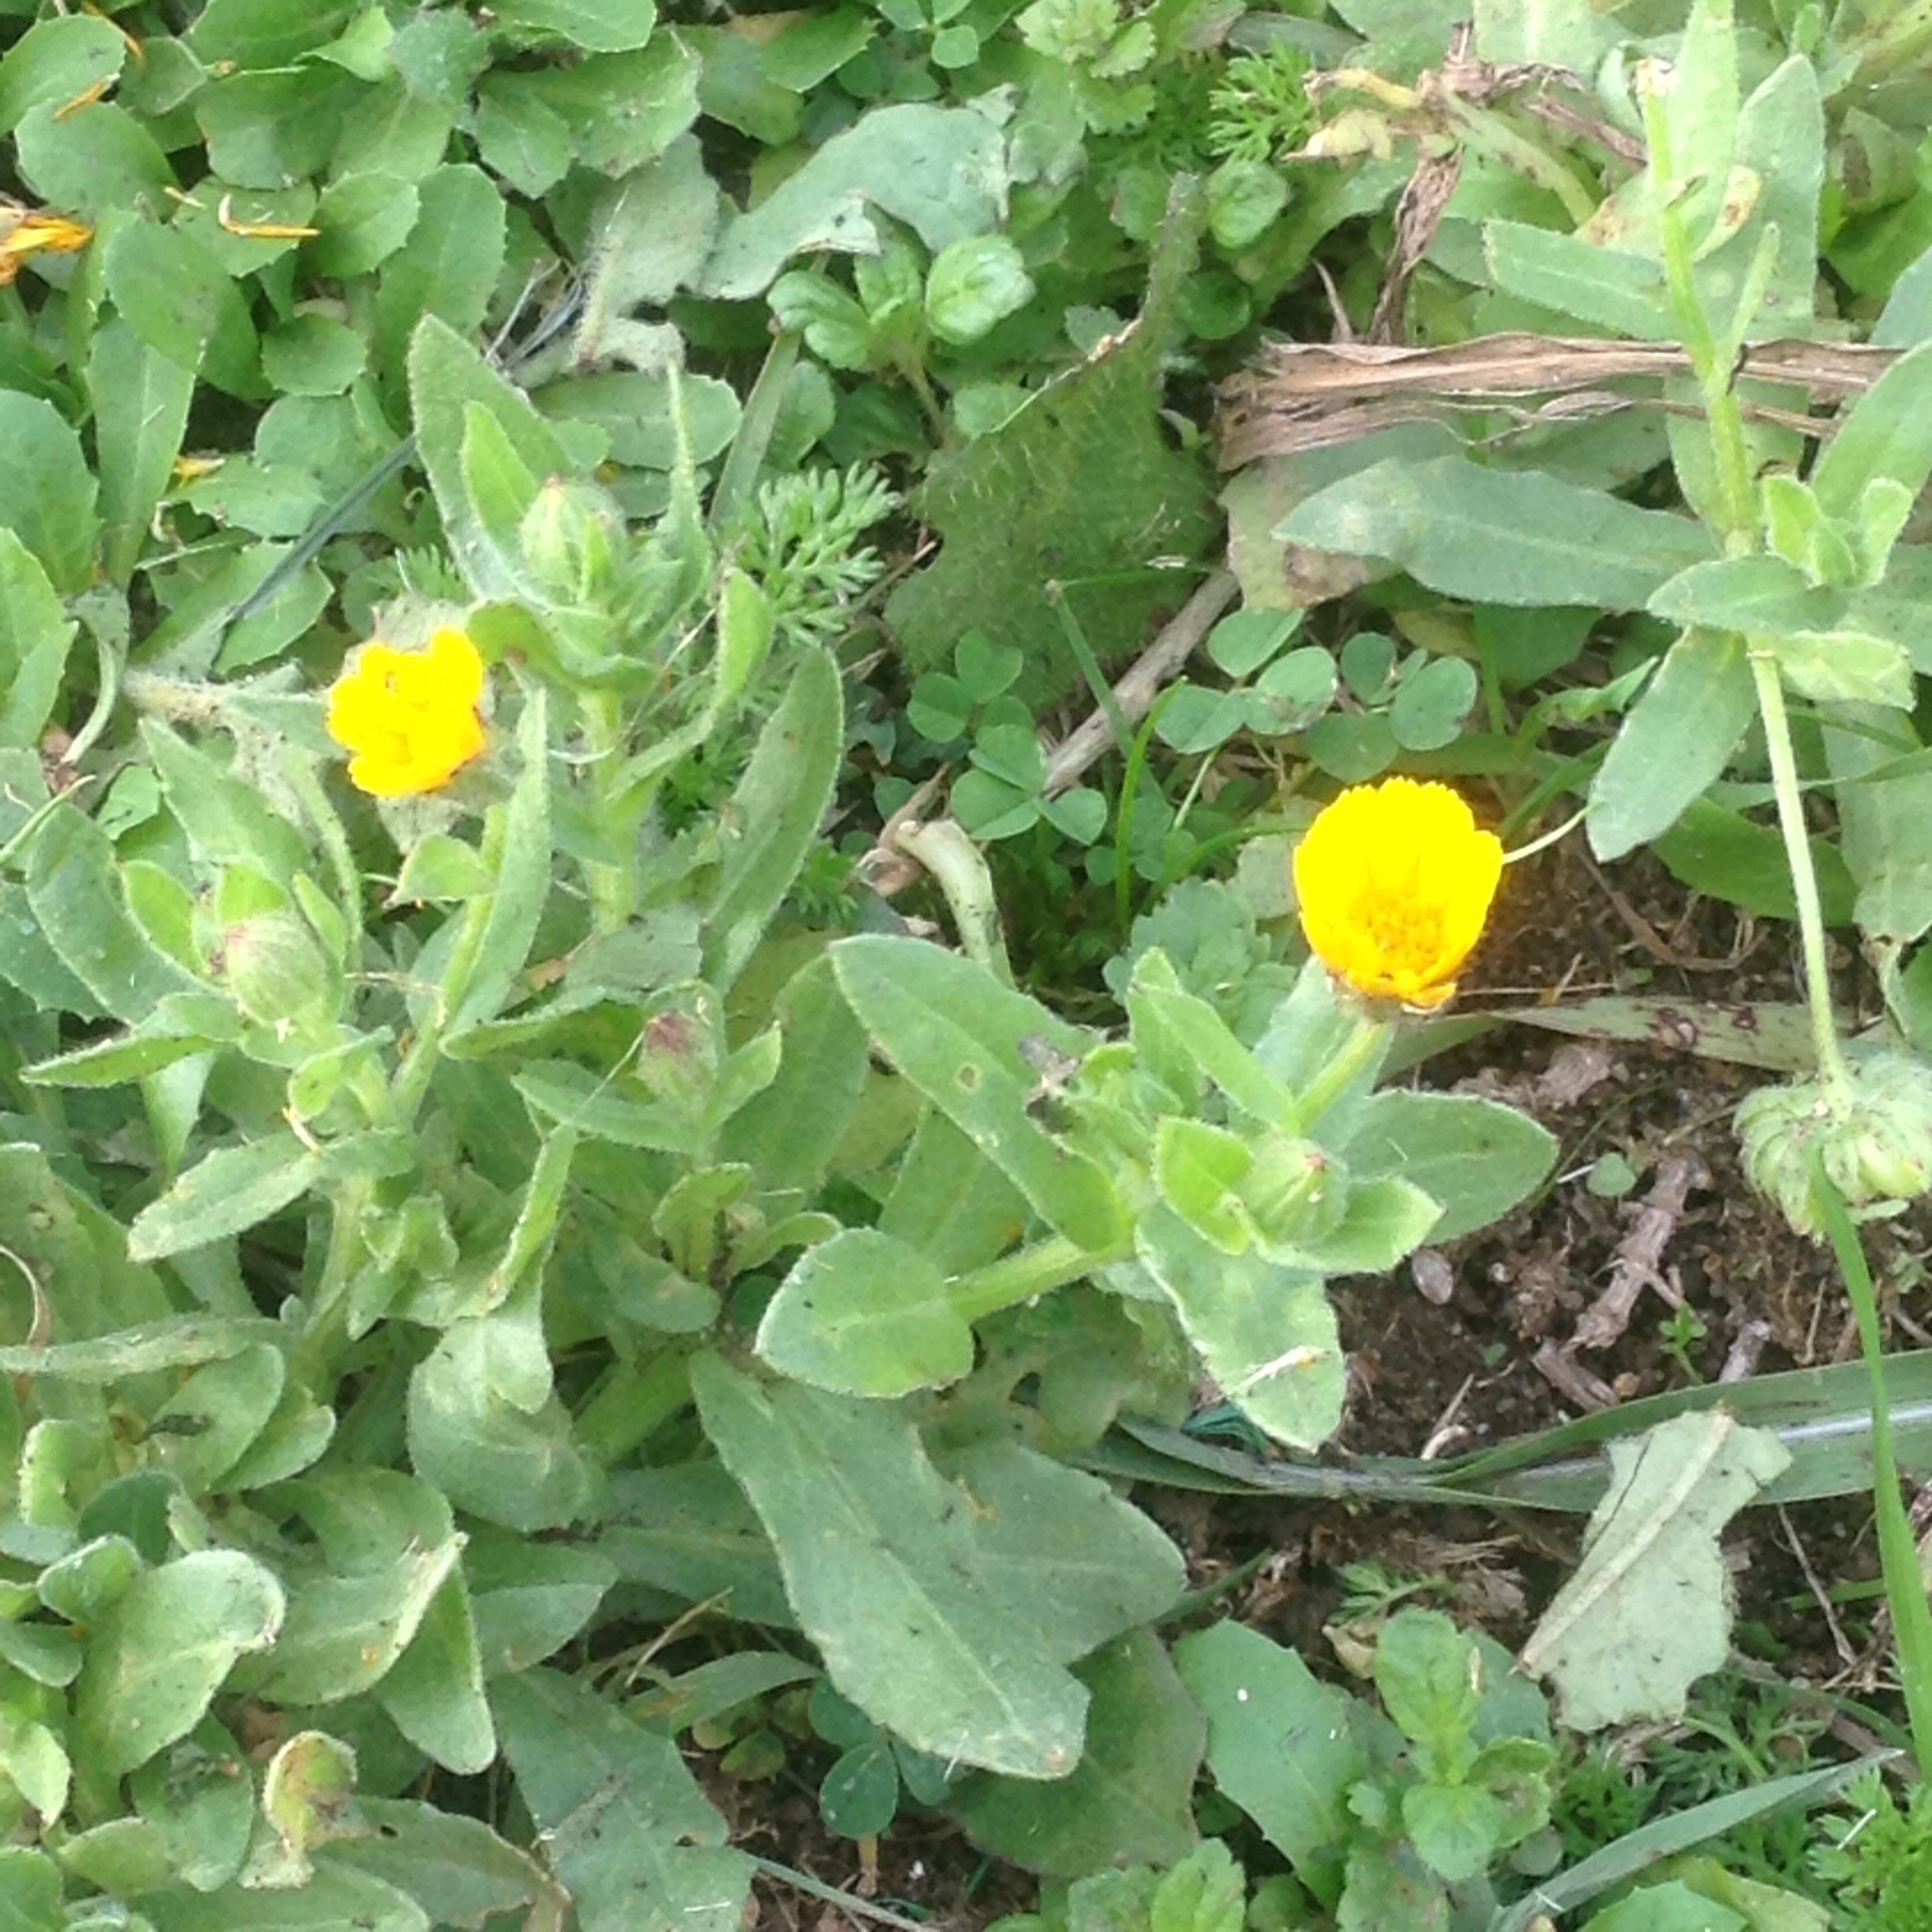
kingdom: Plantae
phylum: Tracheophyta
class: Magnoliopsida
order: Asterales
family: Asteraceae
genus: Calendula
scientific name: Calendula arvensis
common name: Field marigold
